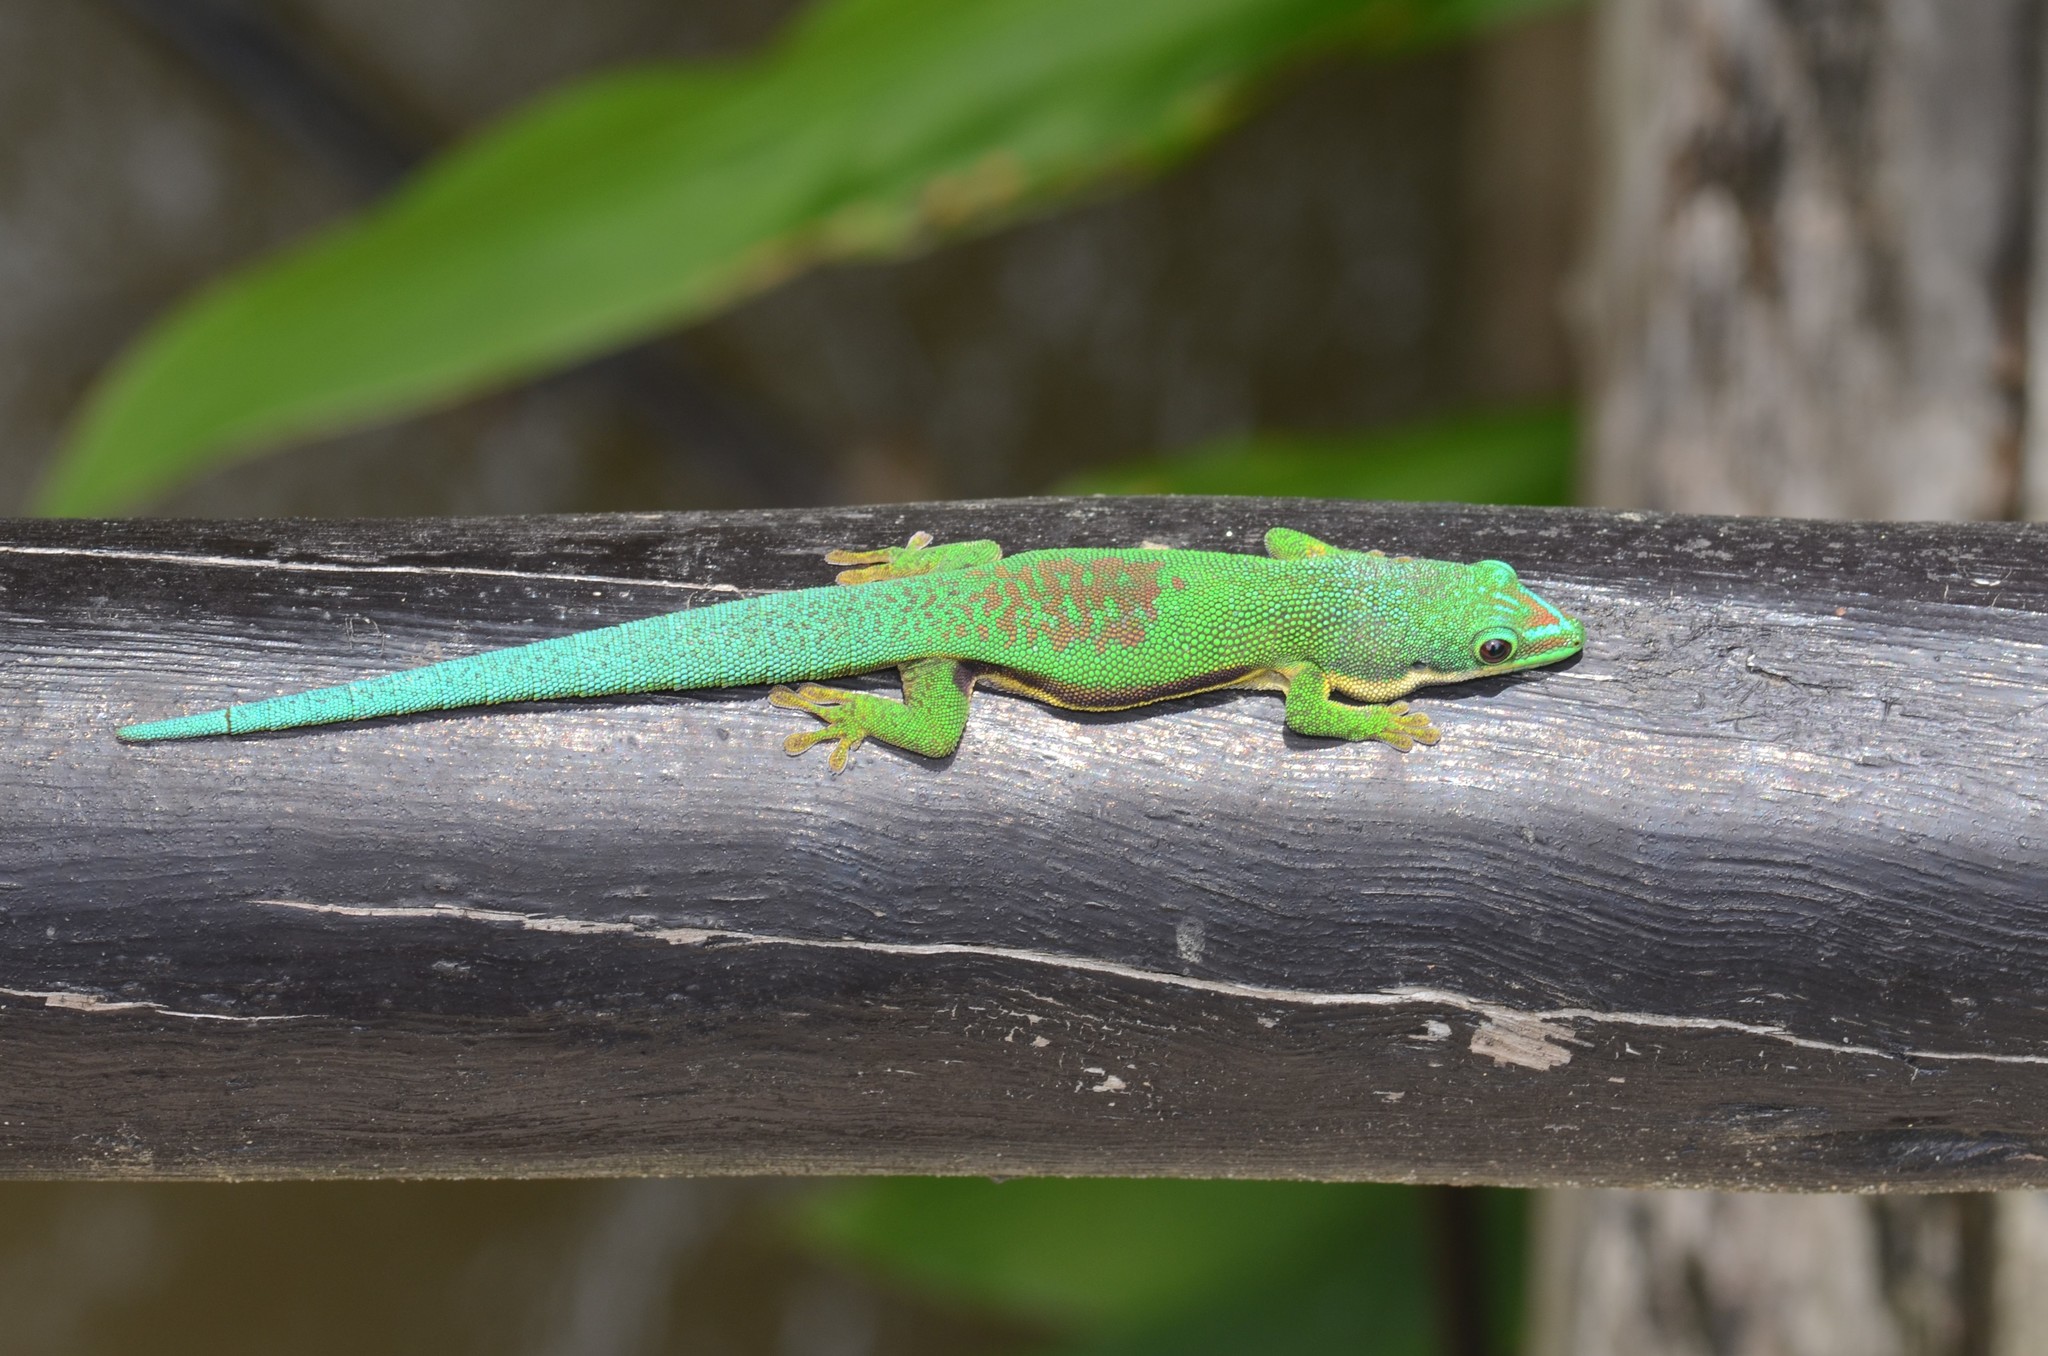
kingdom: Animalia
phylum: Chordata
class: Squamata
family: Gekkonidae
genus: Phelsuma
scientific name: Phelsuma lineata
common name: Lined day gecko
